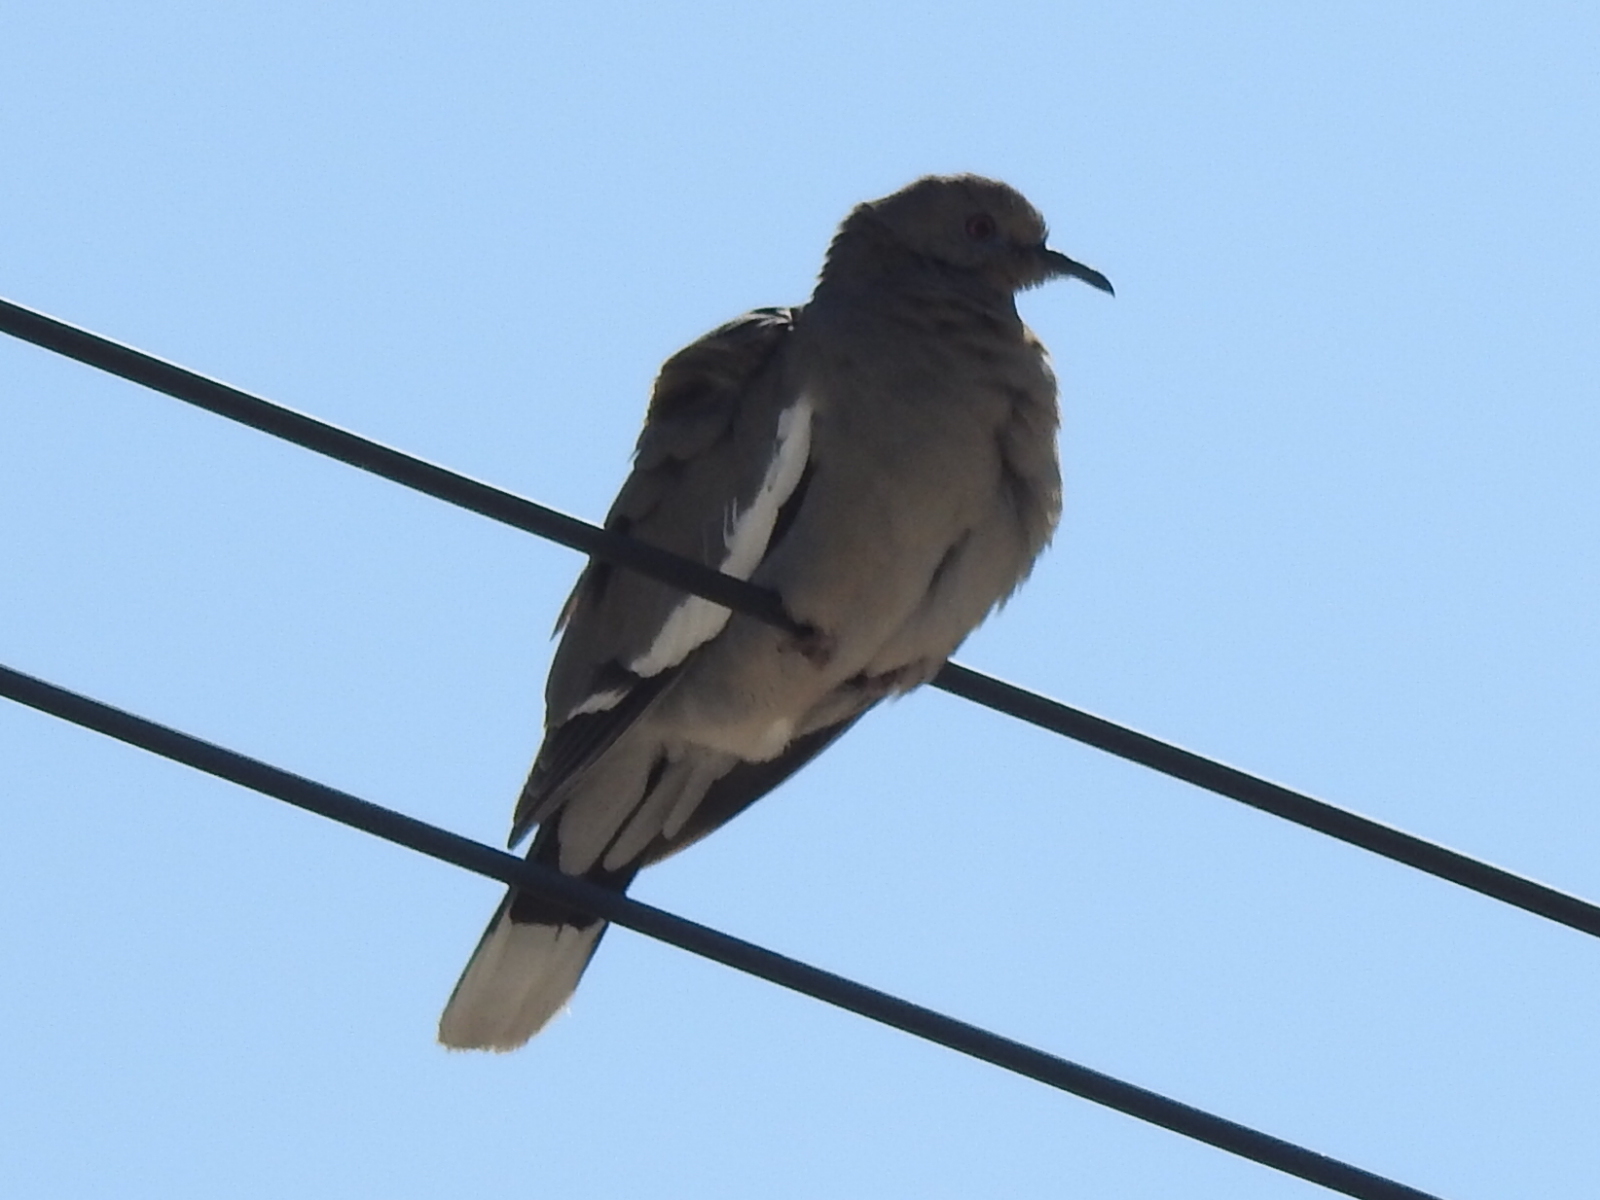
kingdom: Animalia
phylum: Chordata
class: Aves
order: Columbiformes
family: Columbidae
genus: Zenaida
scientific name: Zenaida asiatica
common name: White-winged dove
